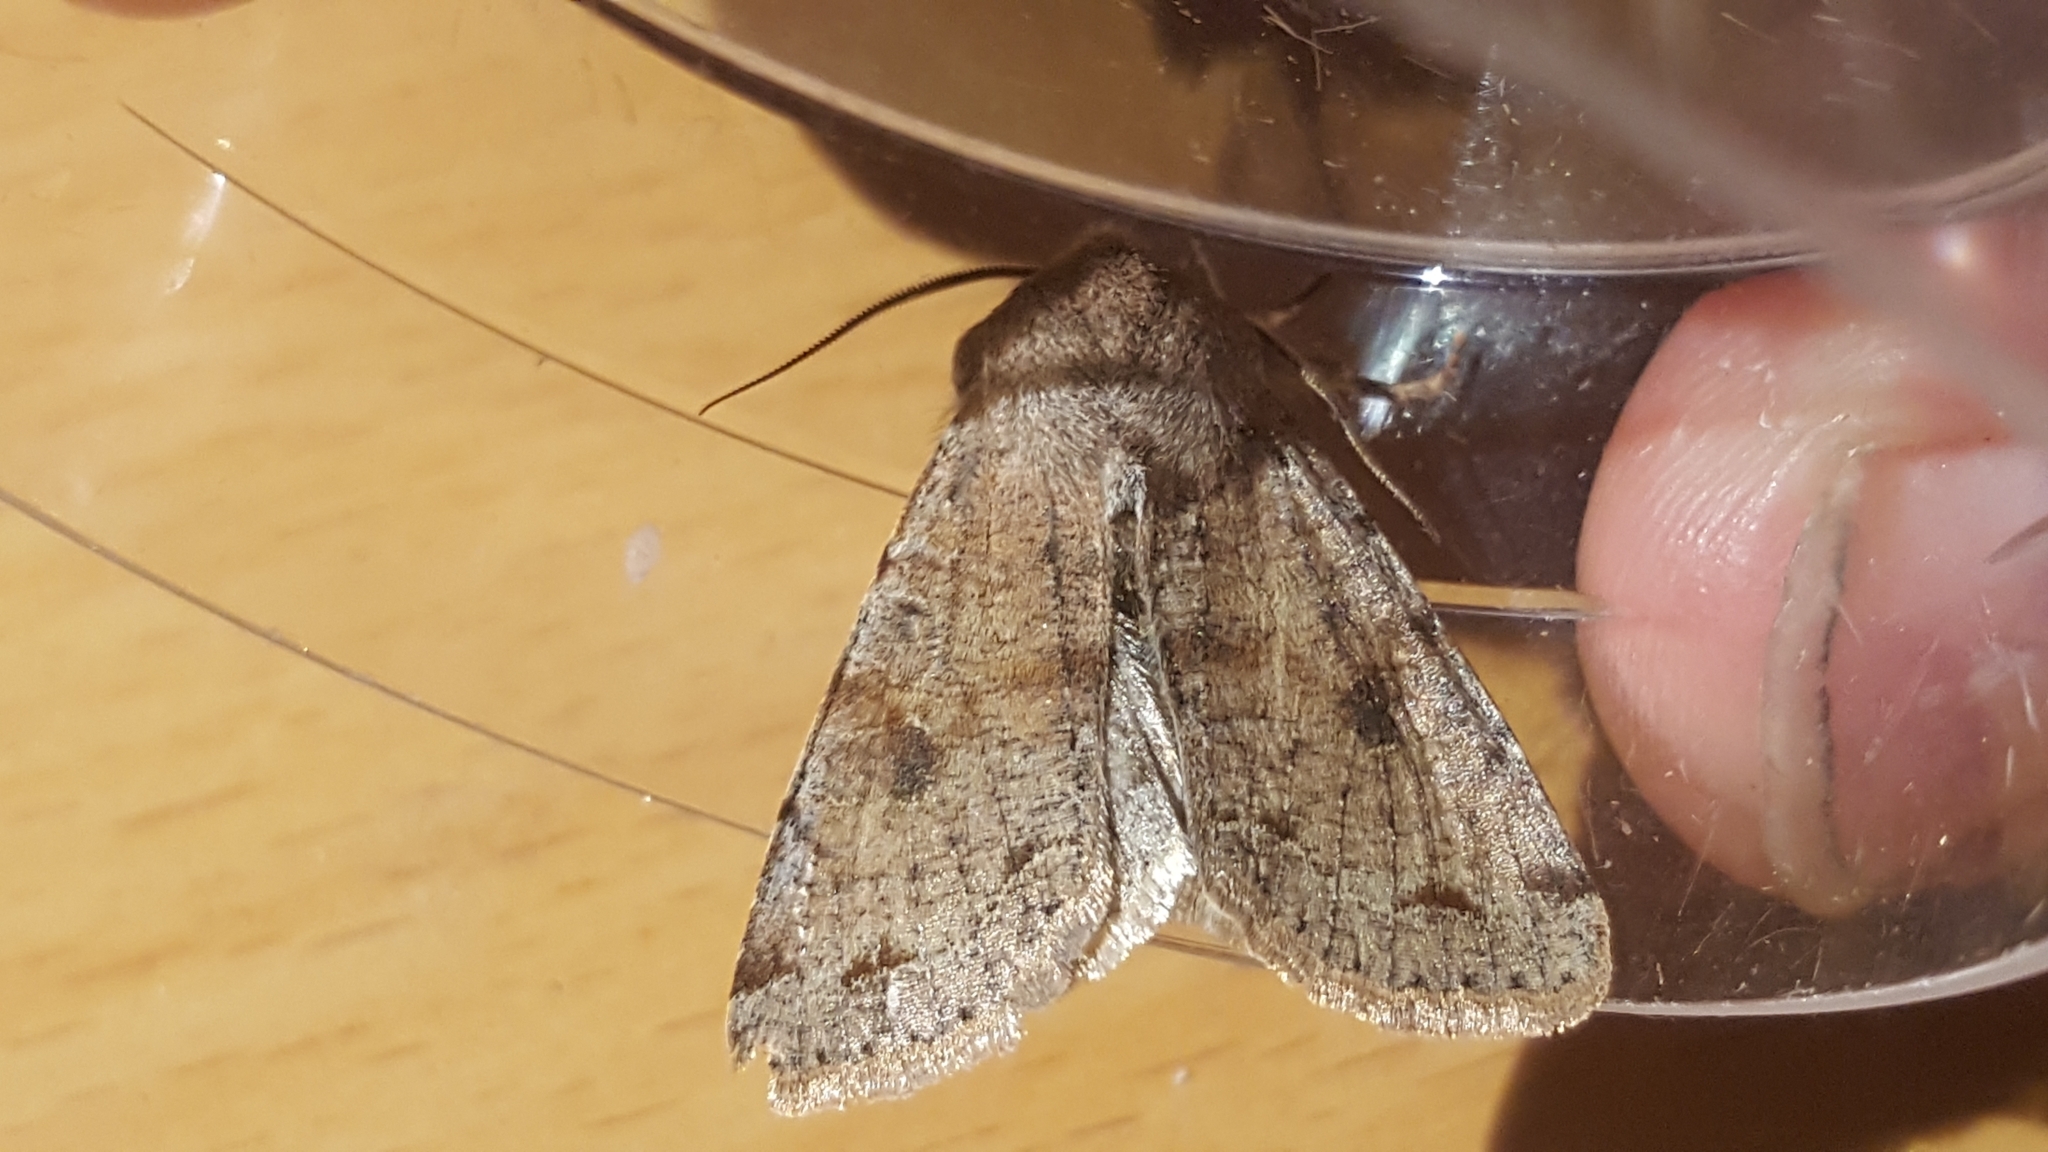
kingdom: Animalia
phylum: Arthropoda
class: Insecta
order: Lepidoptera
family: Noctuidae
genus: Orthosia
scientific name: Orthosia incerta
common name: Clouded drab
